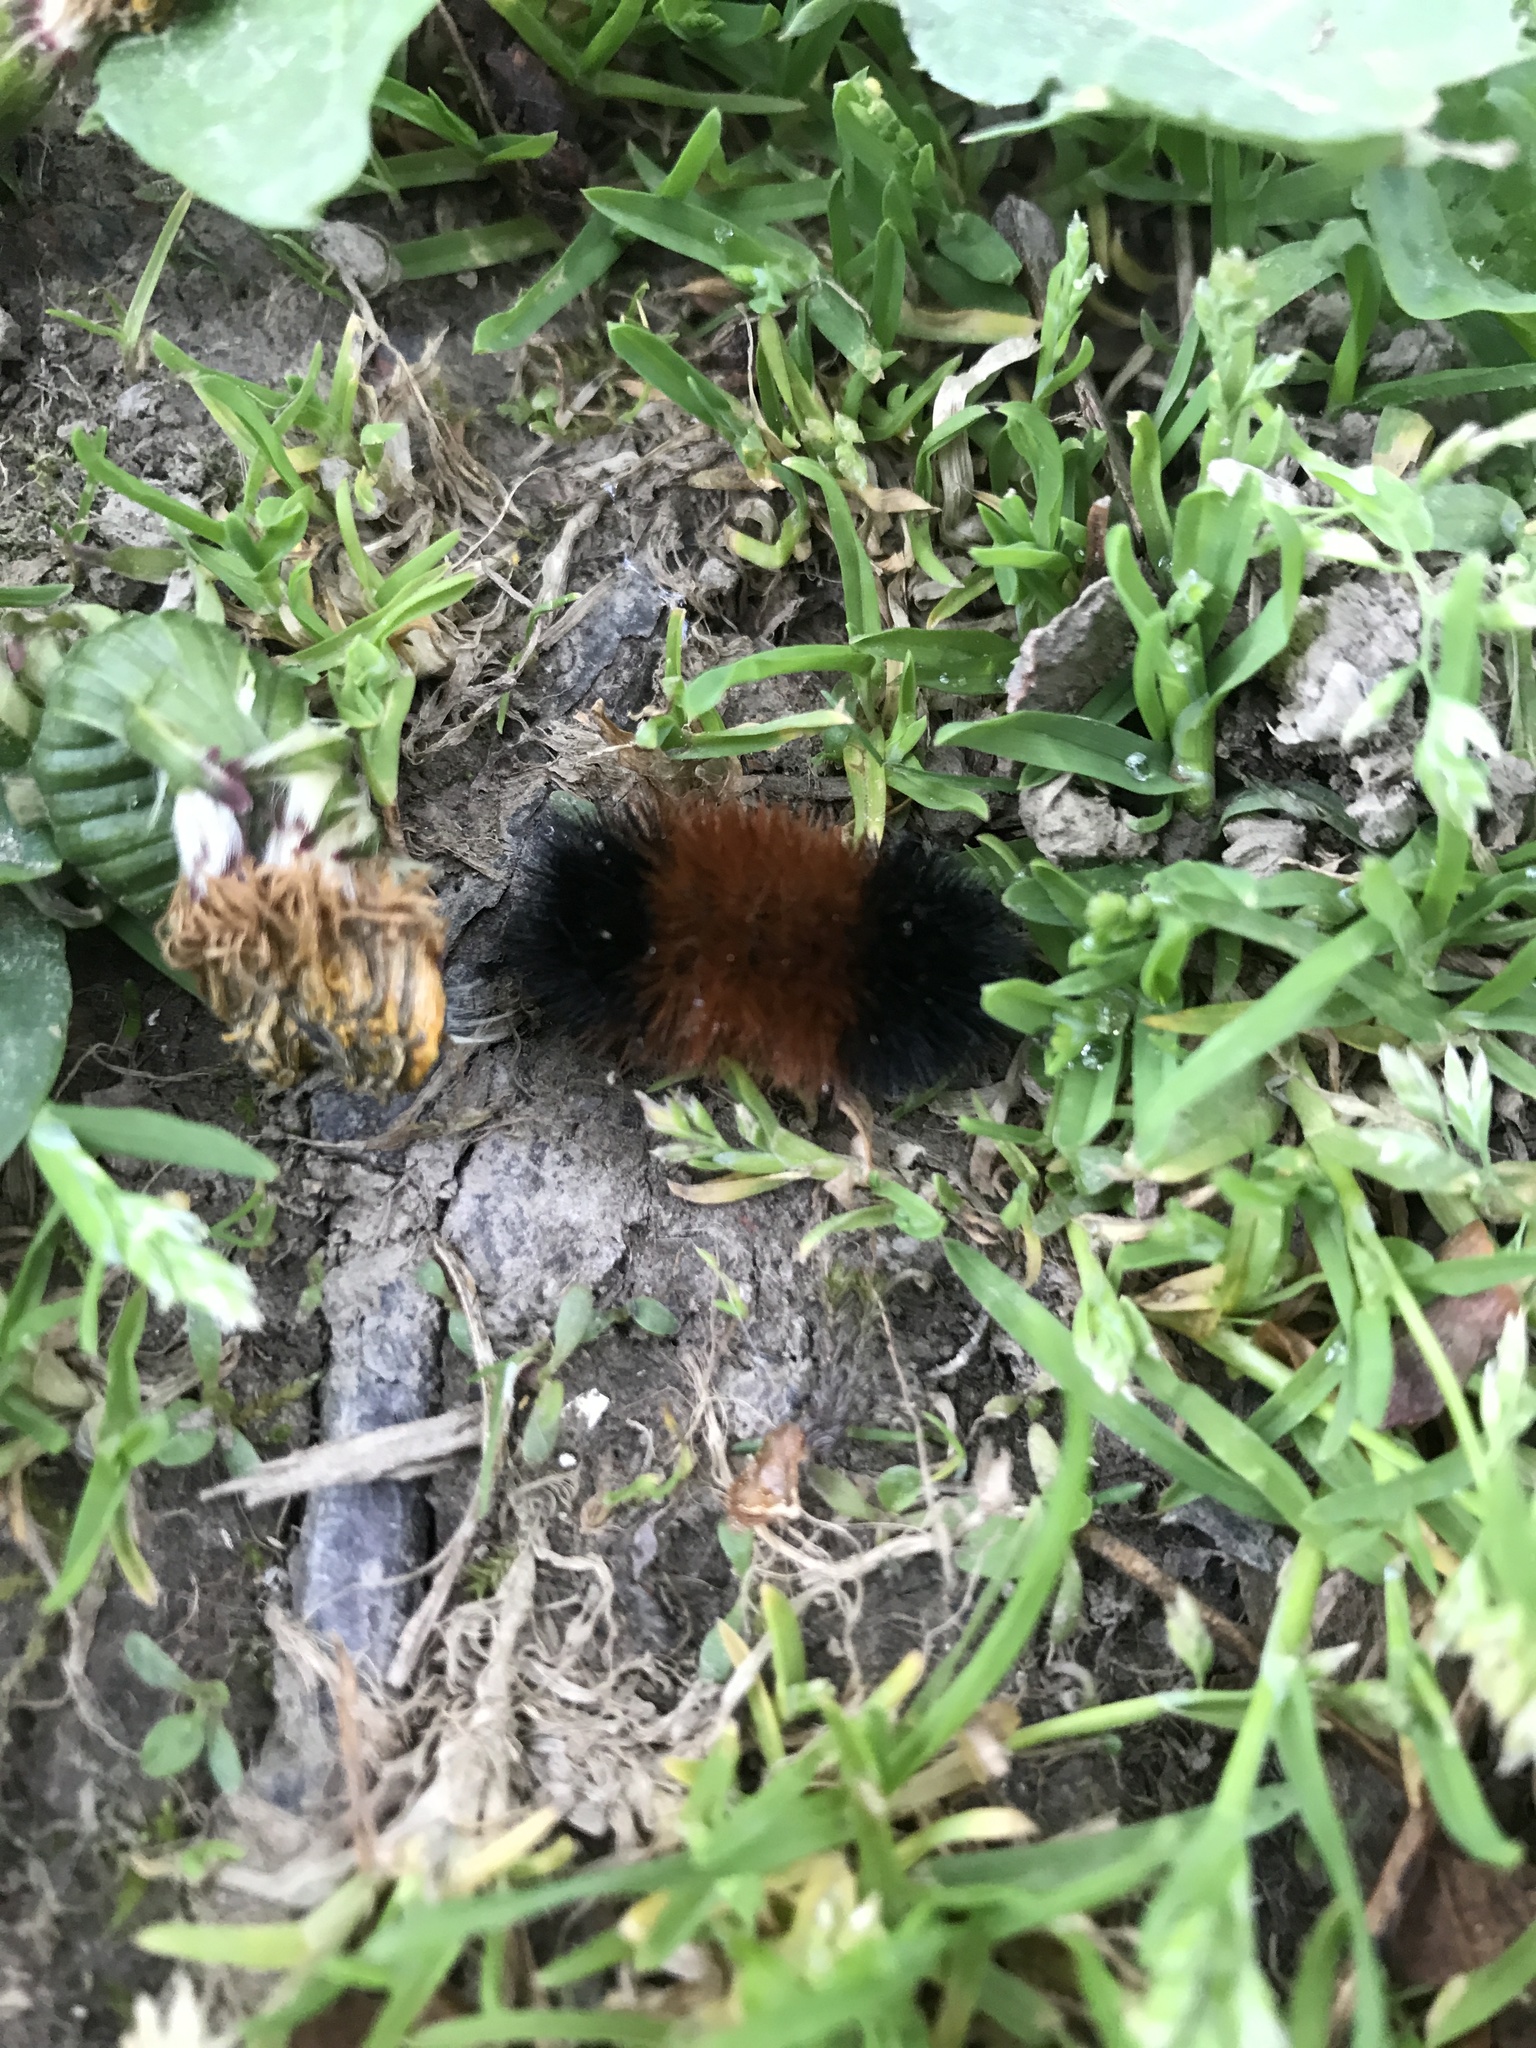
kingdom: Animalia
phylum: Arthropoda
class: Insecta
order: Lepidoptera
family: Erebidae
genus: Pyrrharctia
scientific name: Pyrrharctia isabella
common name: Isabella tiger moth
